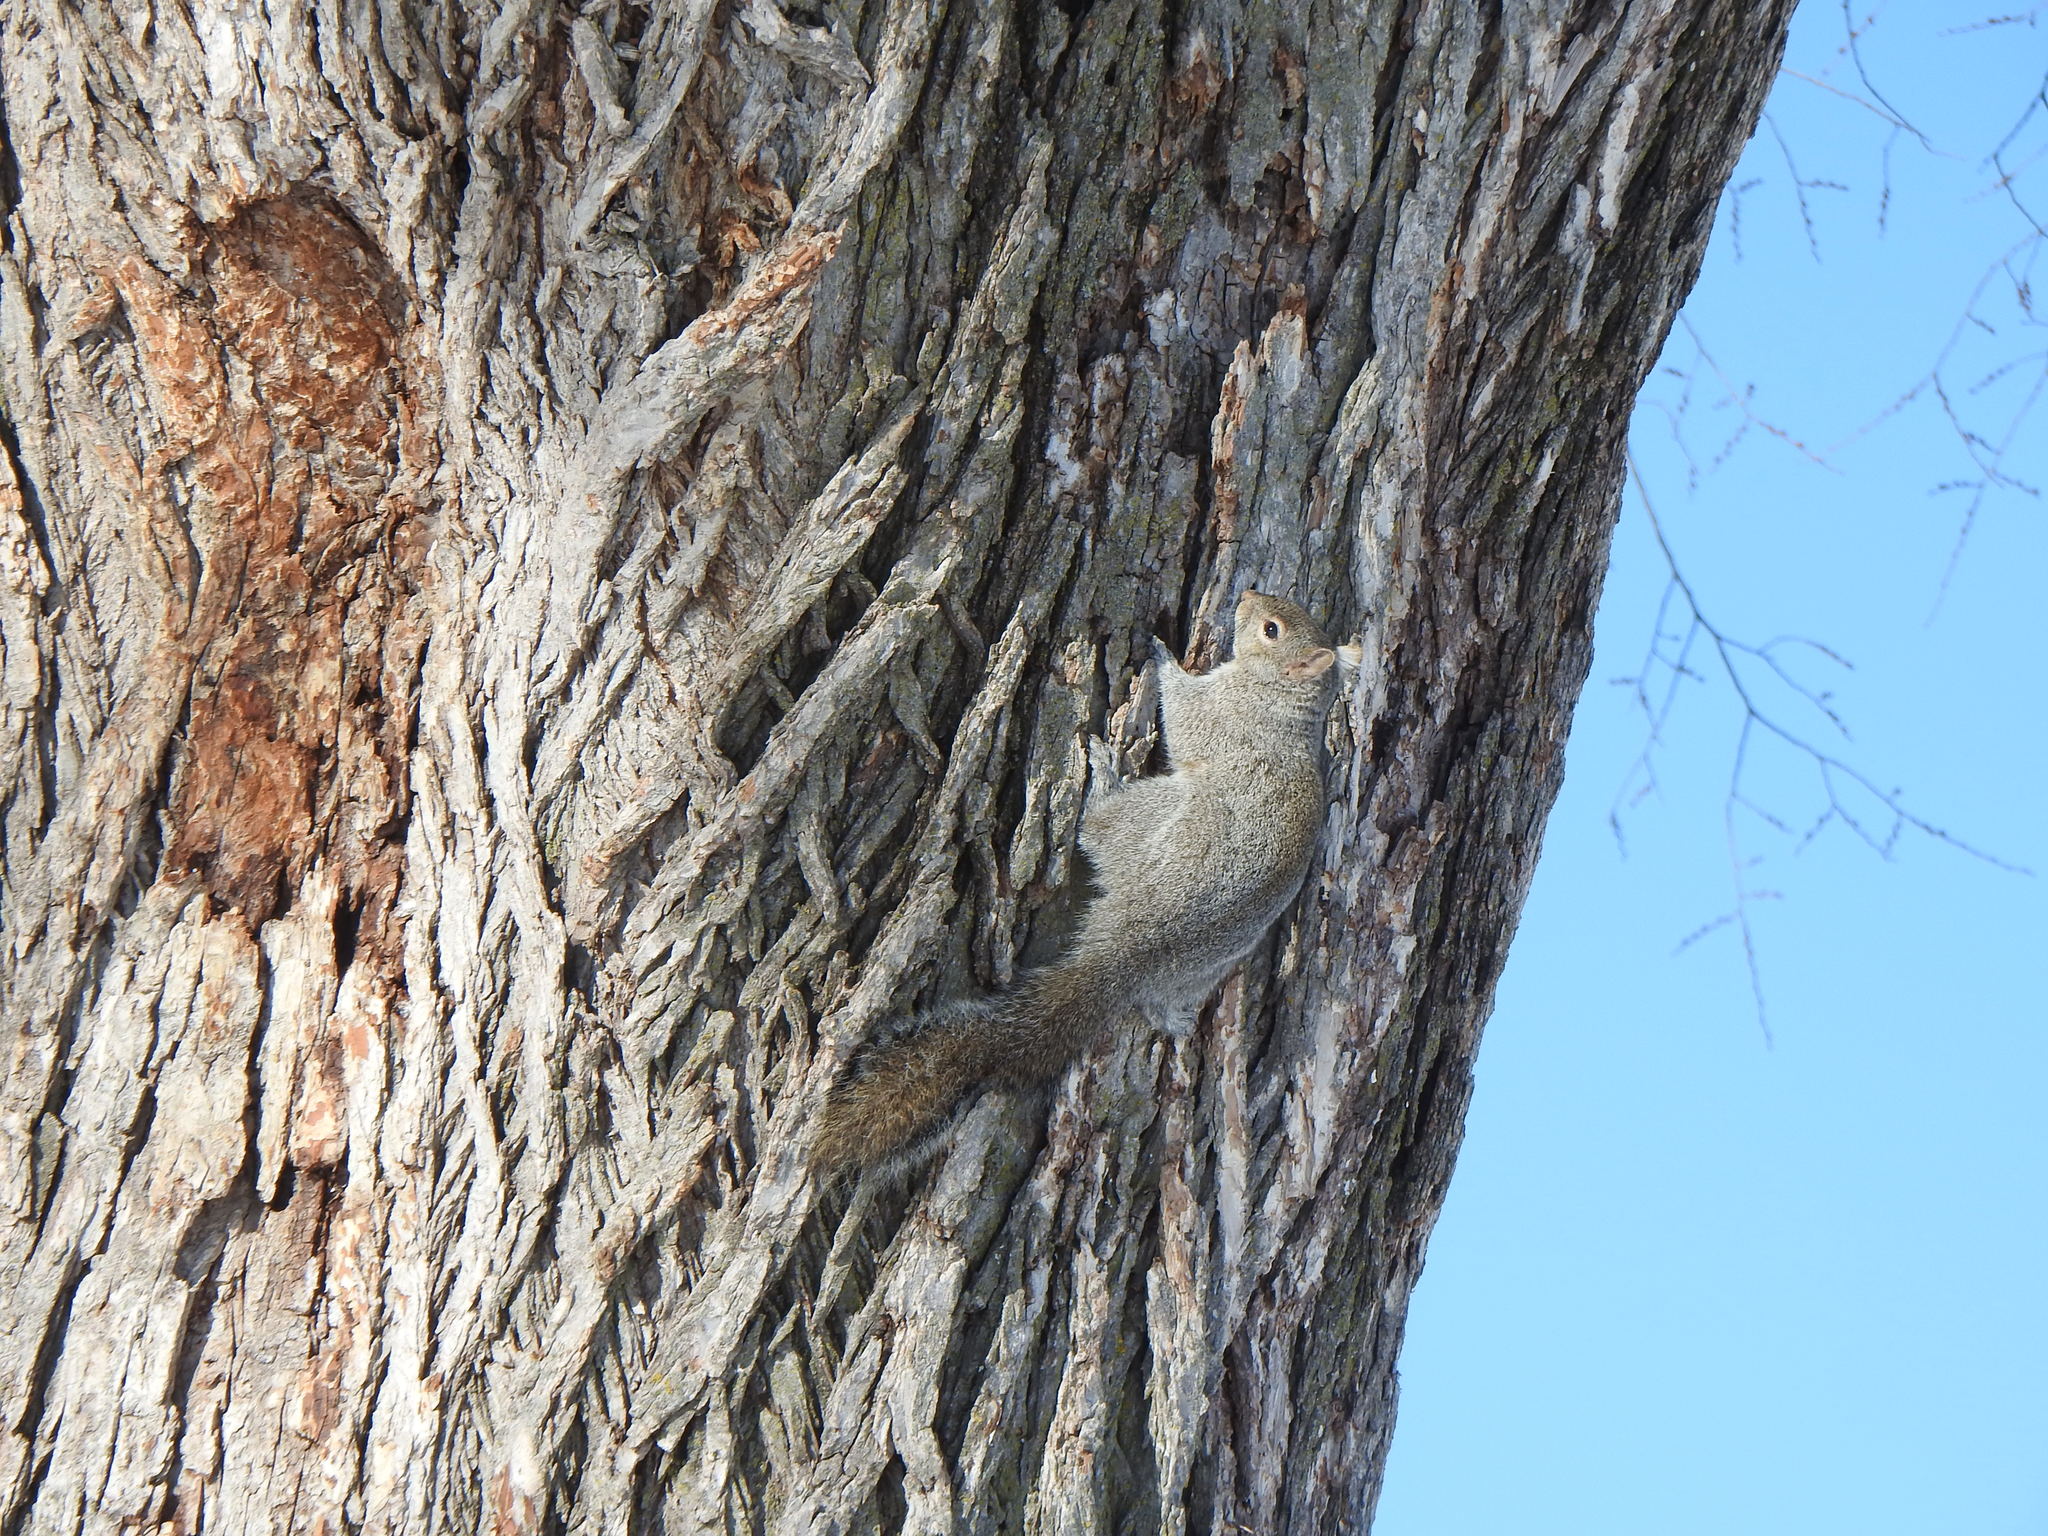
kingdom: Animalia
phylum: Chordata
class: Mammalia
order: Rodentia
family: Sciuridae
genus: Sciurus
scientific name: Sciurus carolinensis
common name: Eastern gray squirrel
